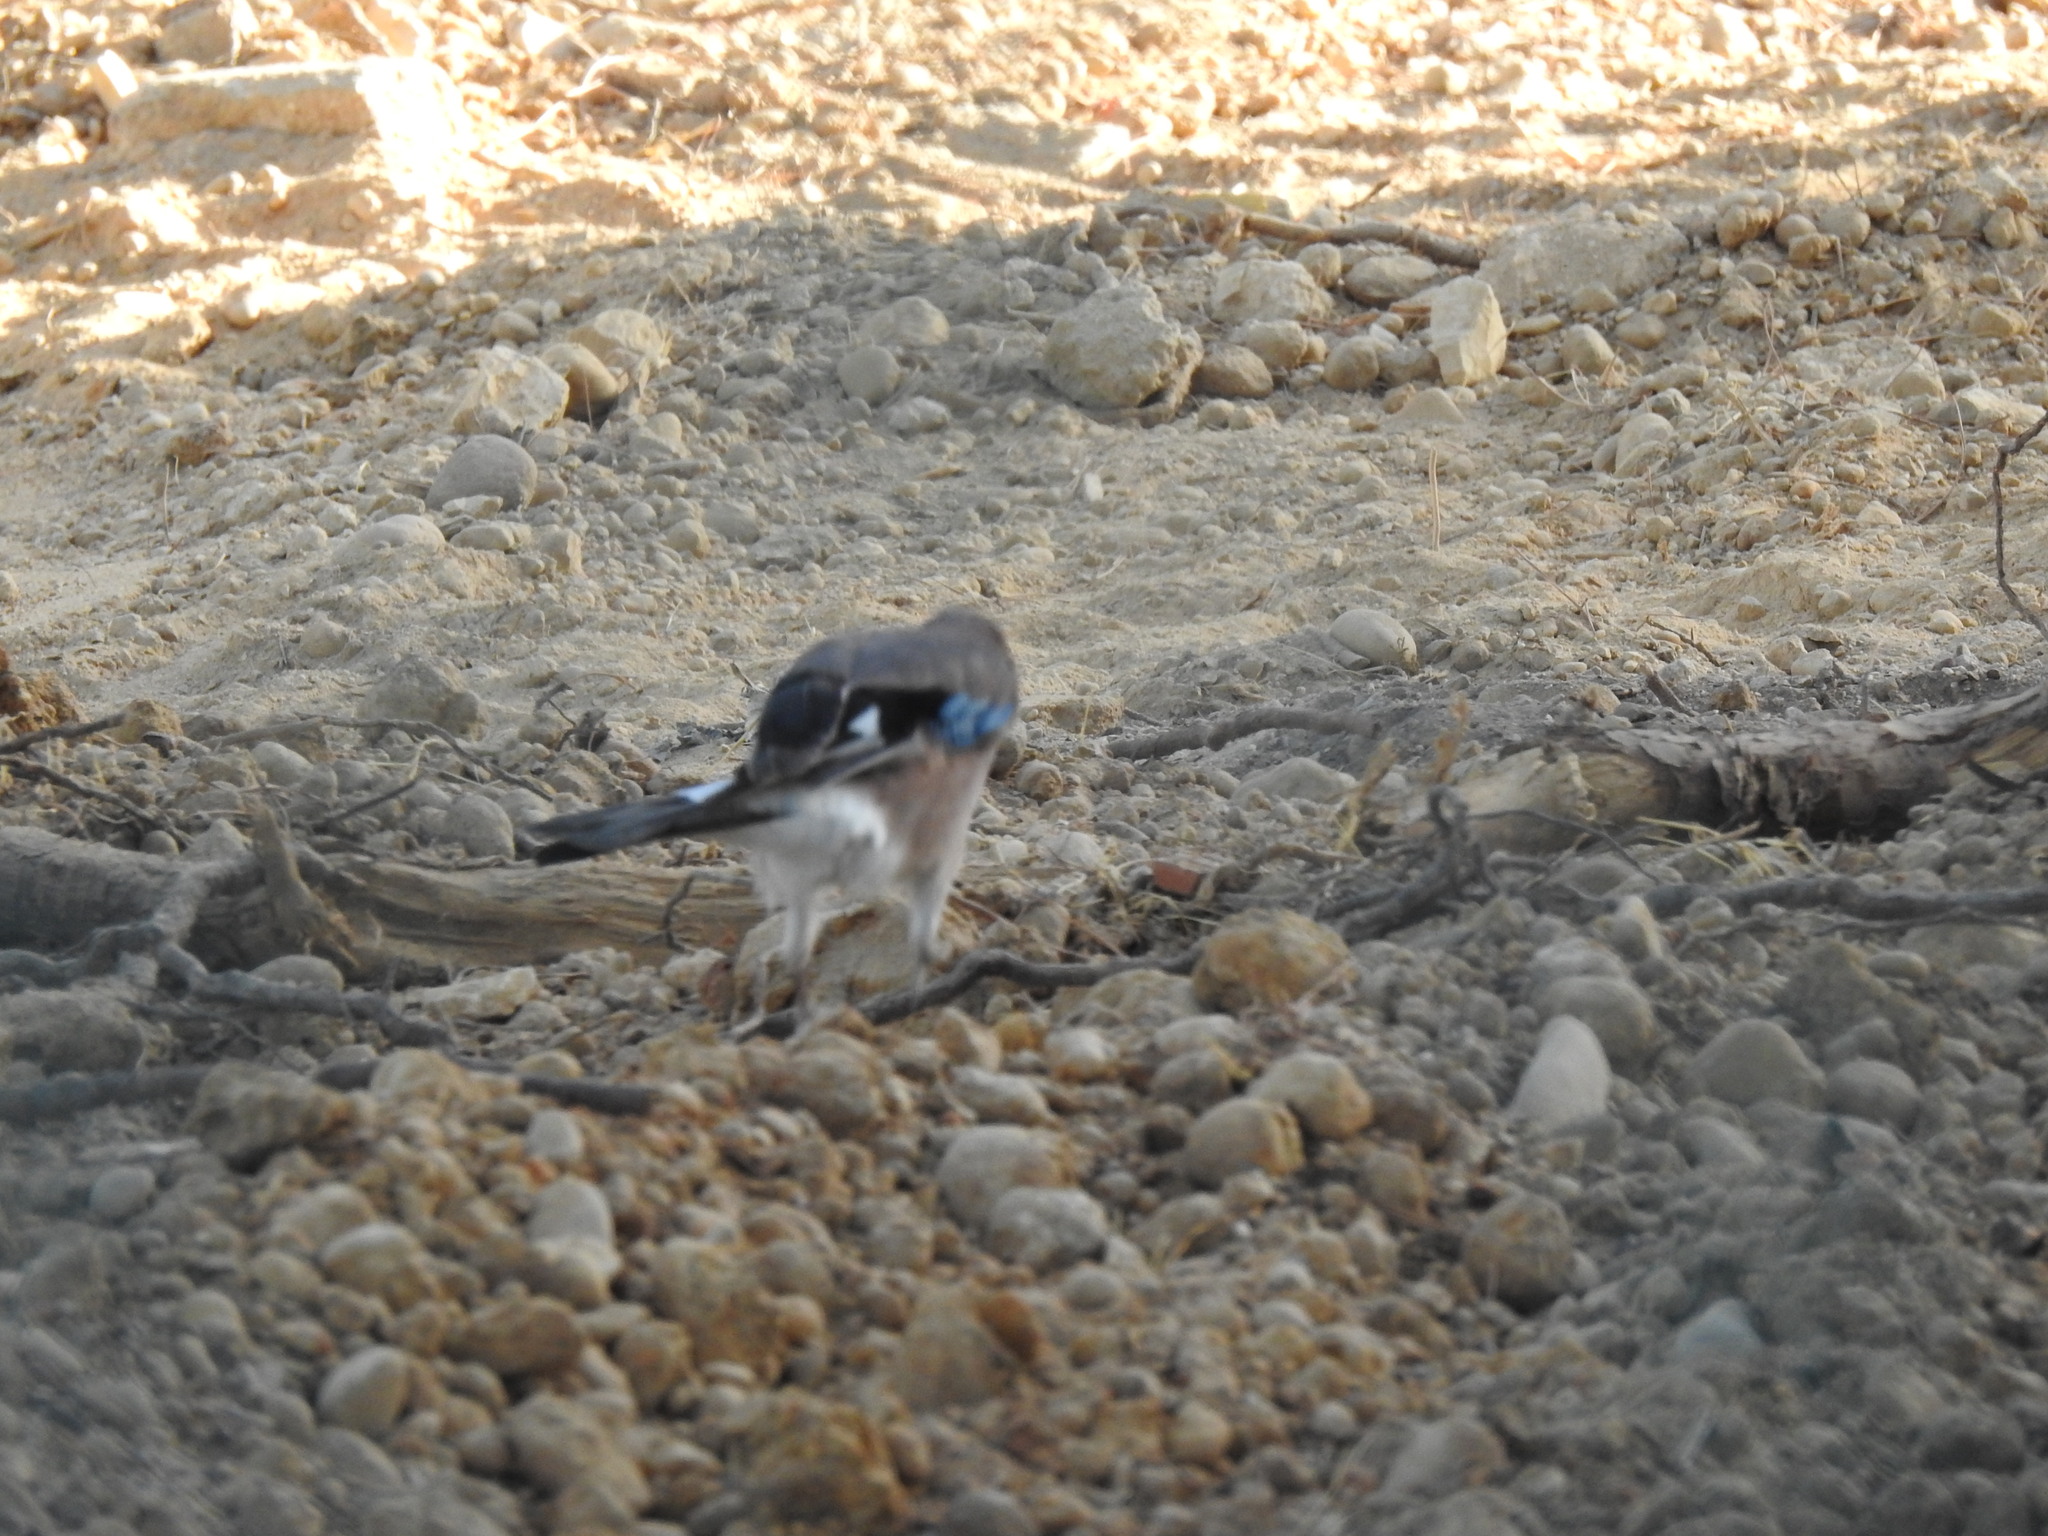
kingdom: Animalia
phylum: Chordata
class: Aves
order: Passeriformes
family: Corvidae
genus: Garrulus
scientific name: Garrulus glandarius
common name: Eurasian jay
